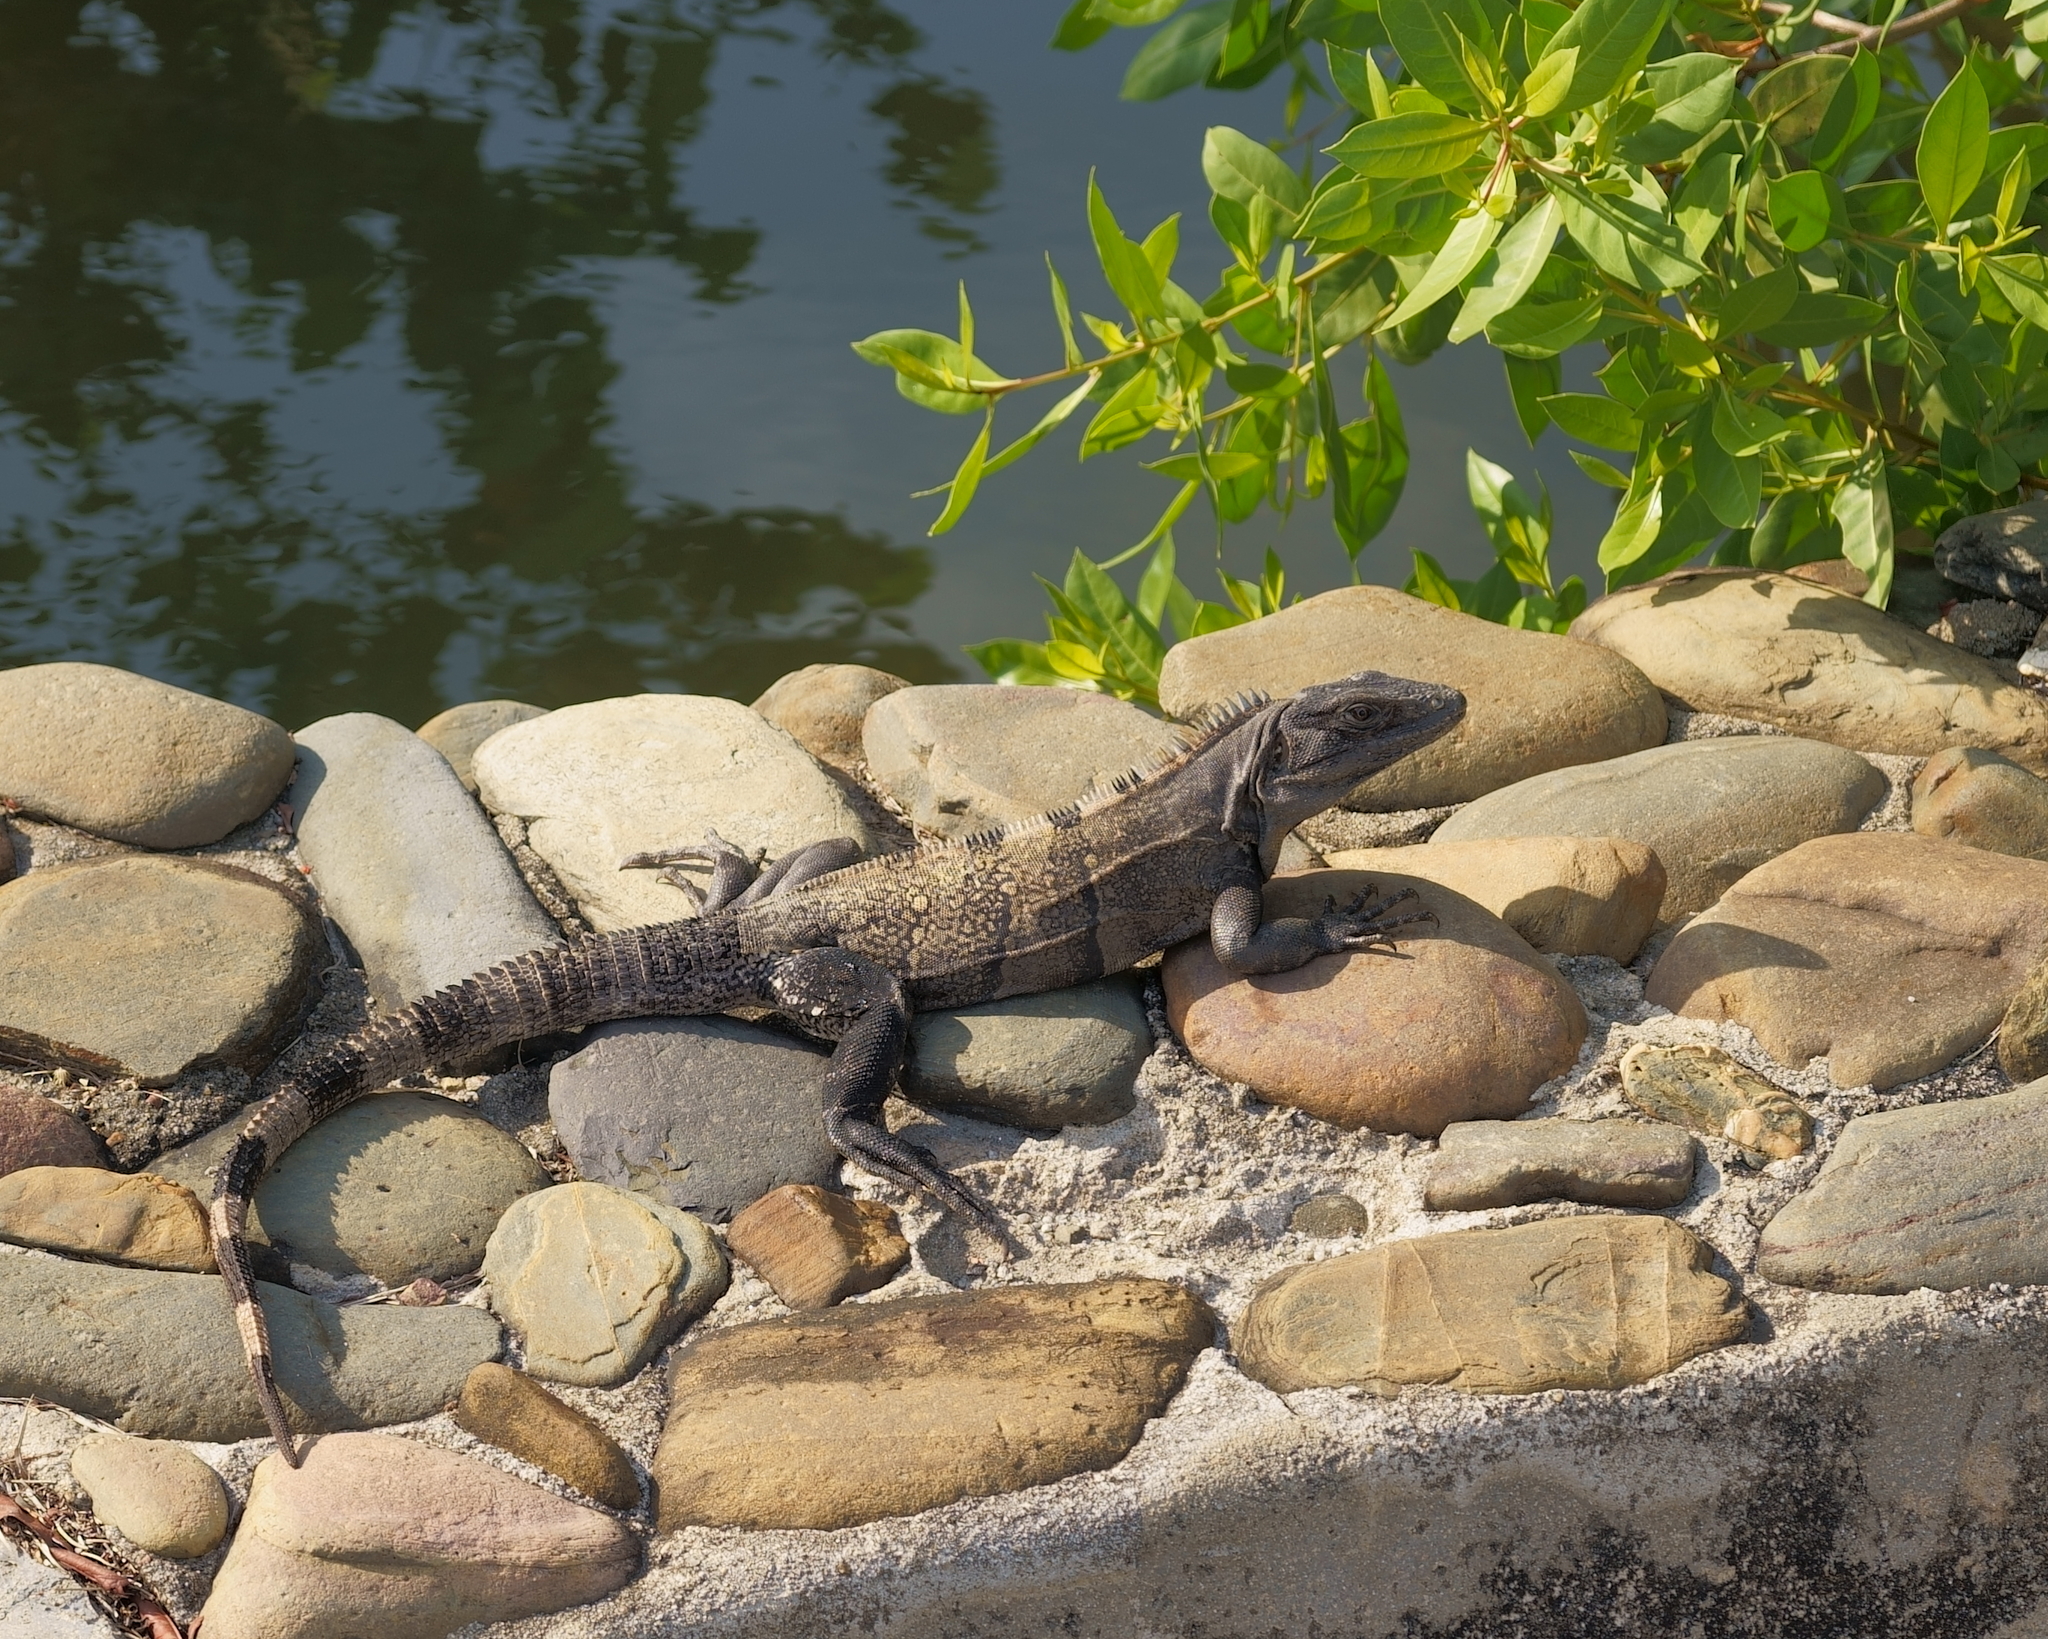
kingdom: Animalia
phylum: Chordata
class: Squamata
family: Iguanidae
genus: Ctenosaura
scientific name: Ctenosaura similis
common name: Black spiny-tailed iguana
